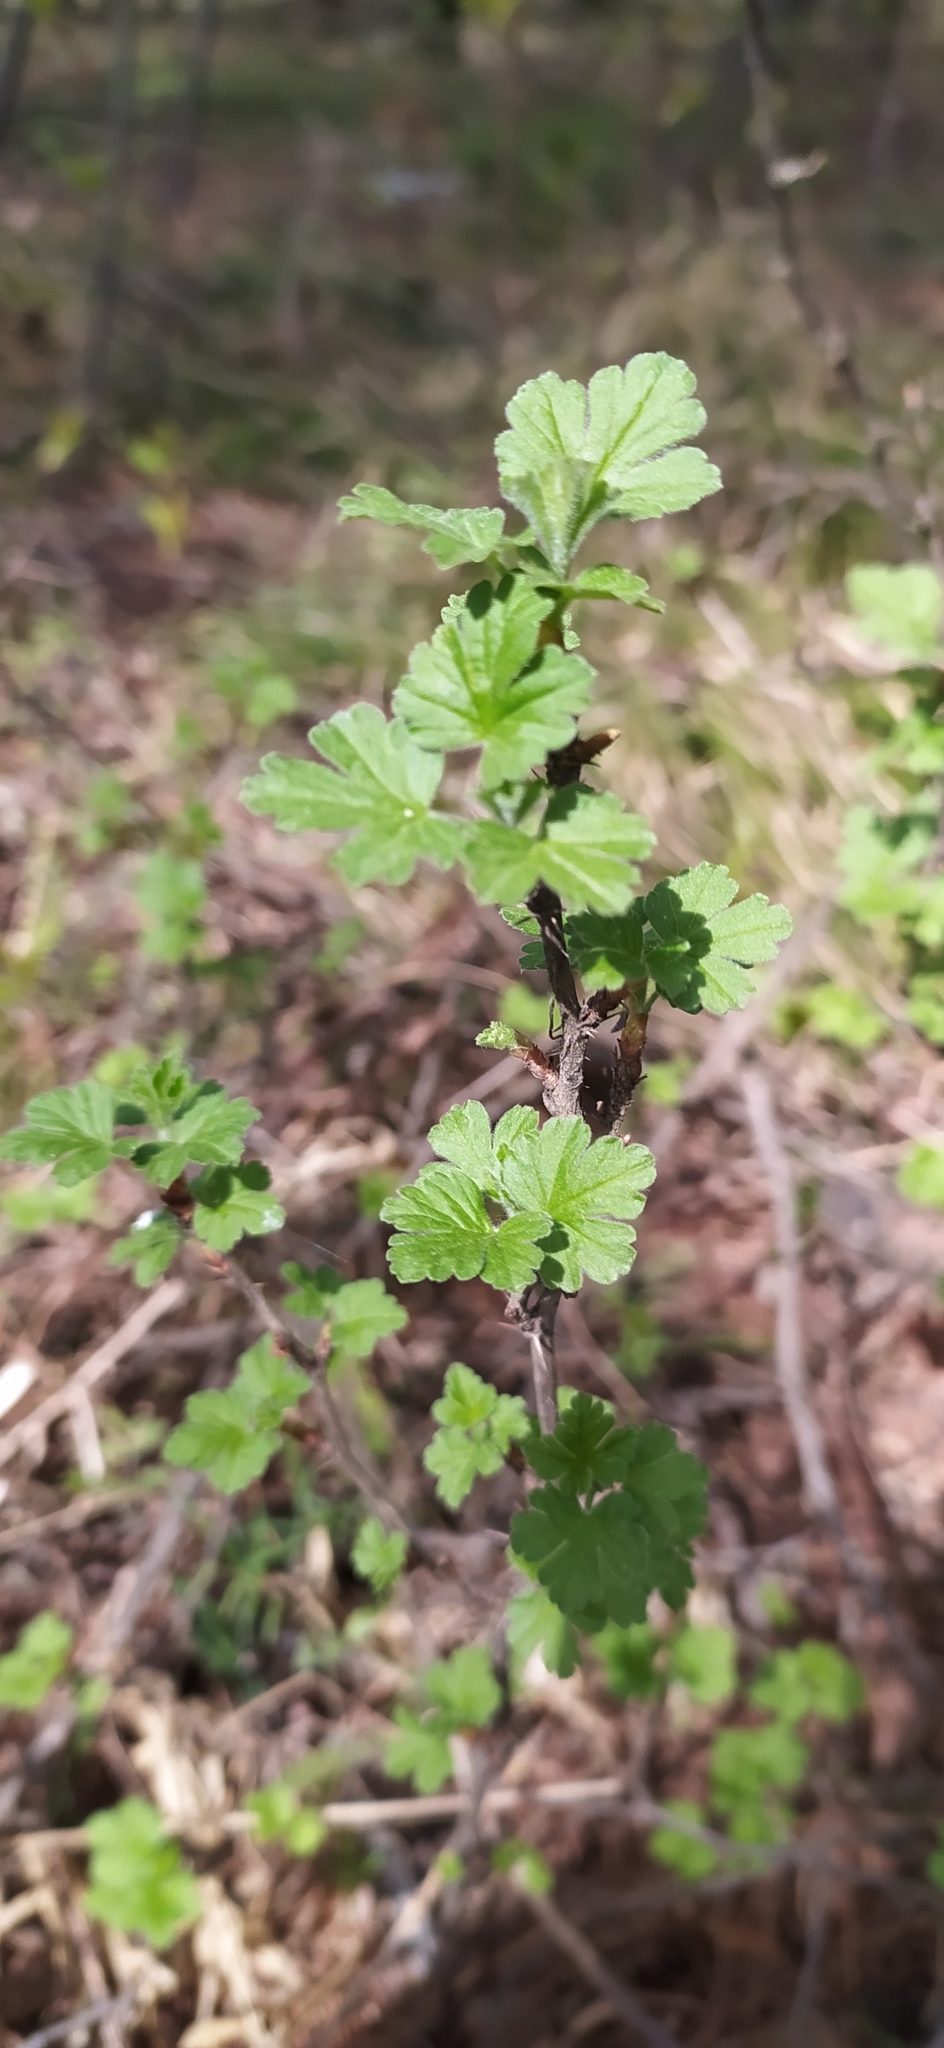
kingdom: Plantae
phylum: Tracheophyta
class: Magnoliopsida
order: Saxifragales
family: Grossulariaceae
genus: Ribes
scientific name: Ribes uva-crispa
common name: Gooseberry
